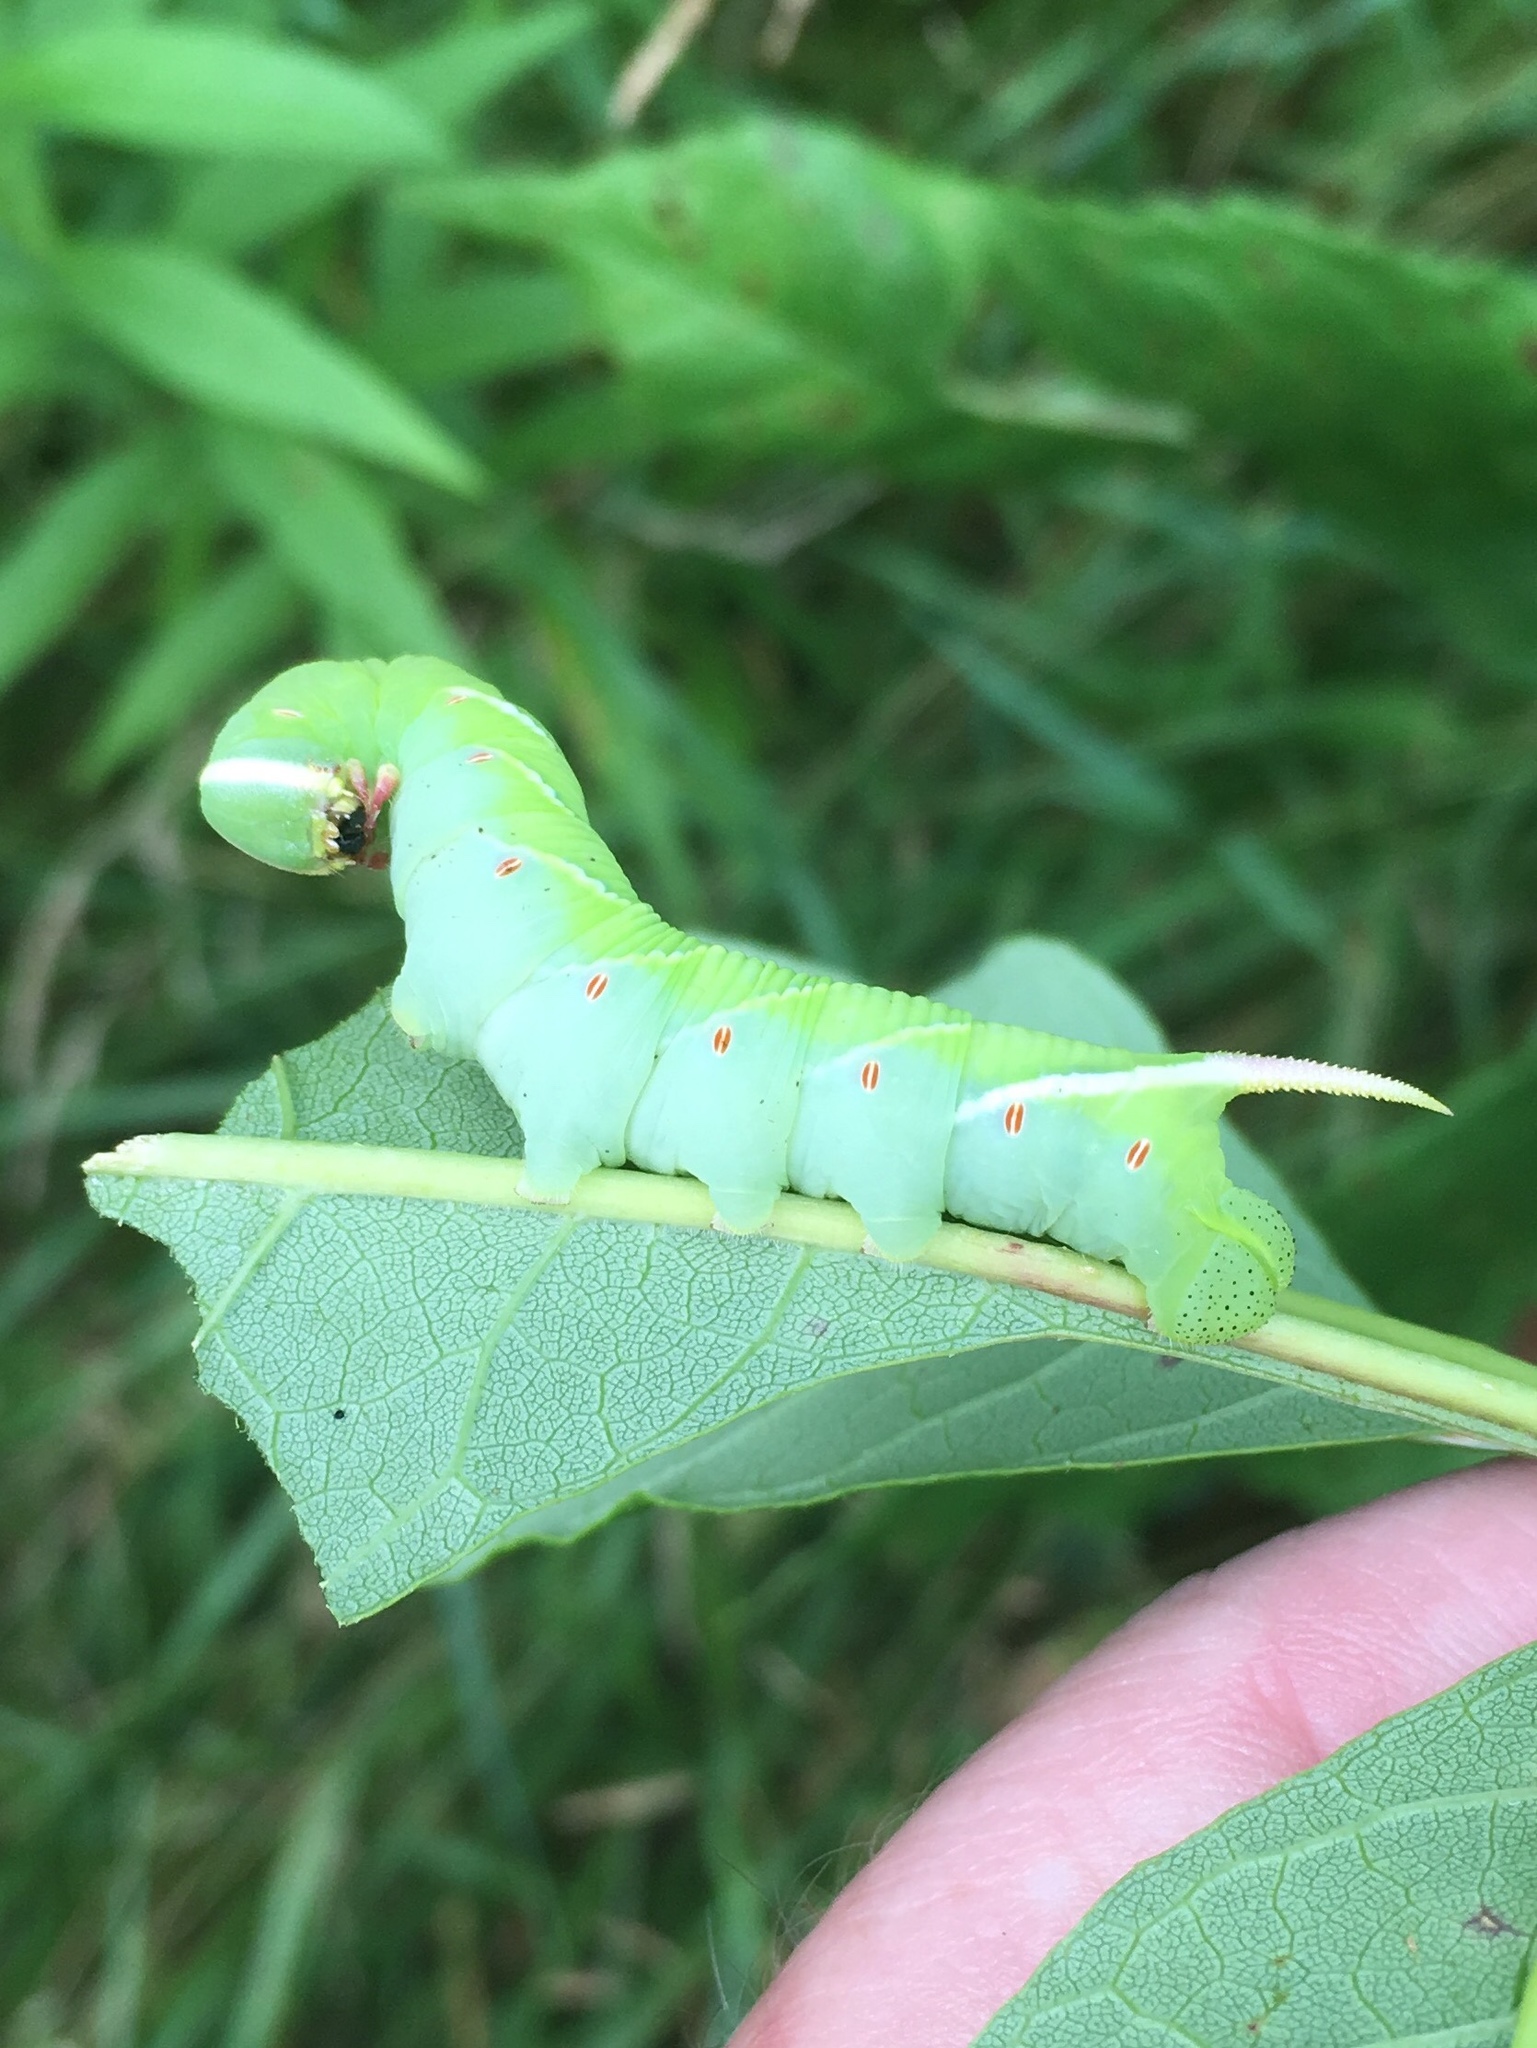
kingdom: Animalia
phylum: Arthropoda
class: Insecta
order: Lepidoptera
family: Sphingidae
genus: Ceratomia
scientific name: Ceratomia undulosa
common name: Waved sphinx
